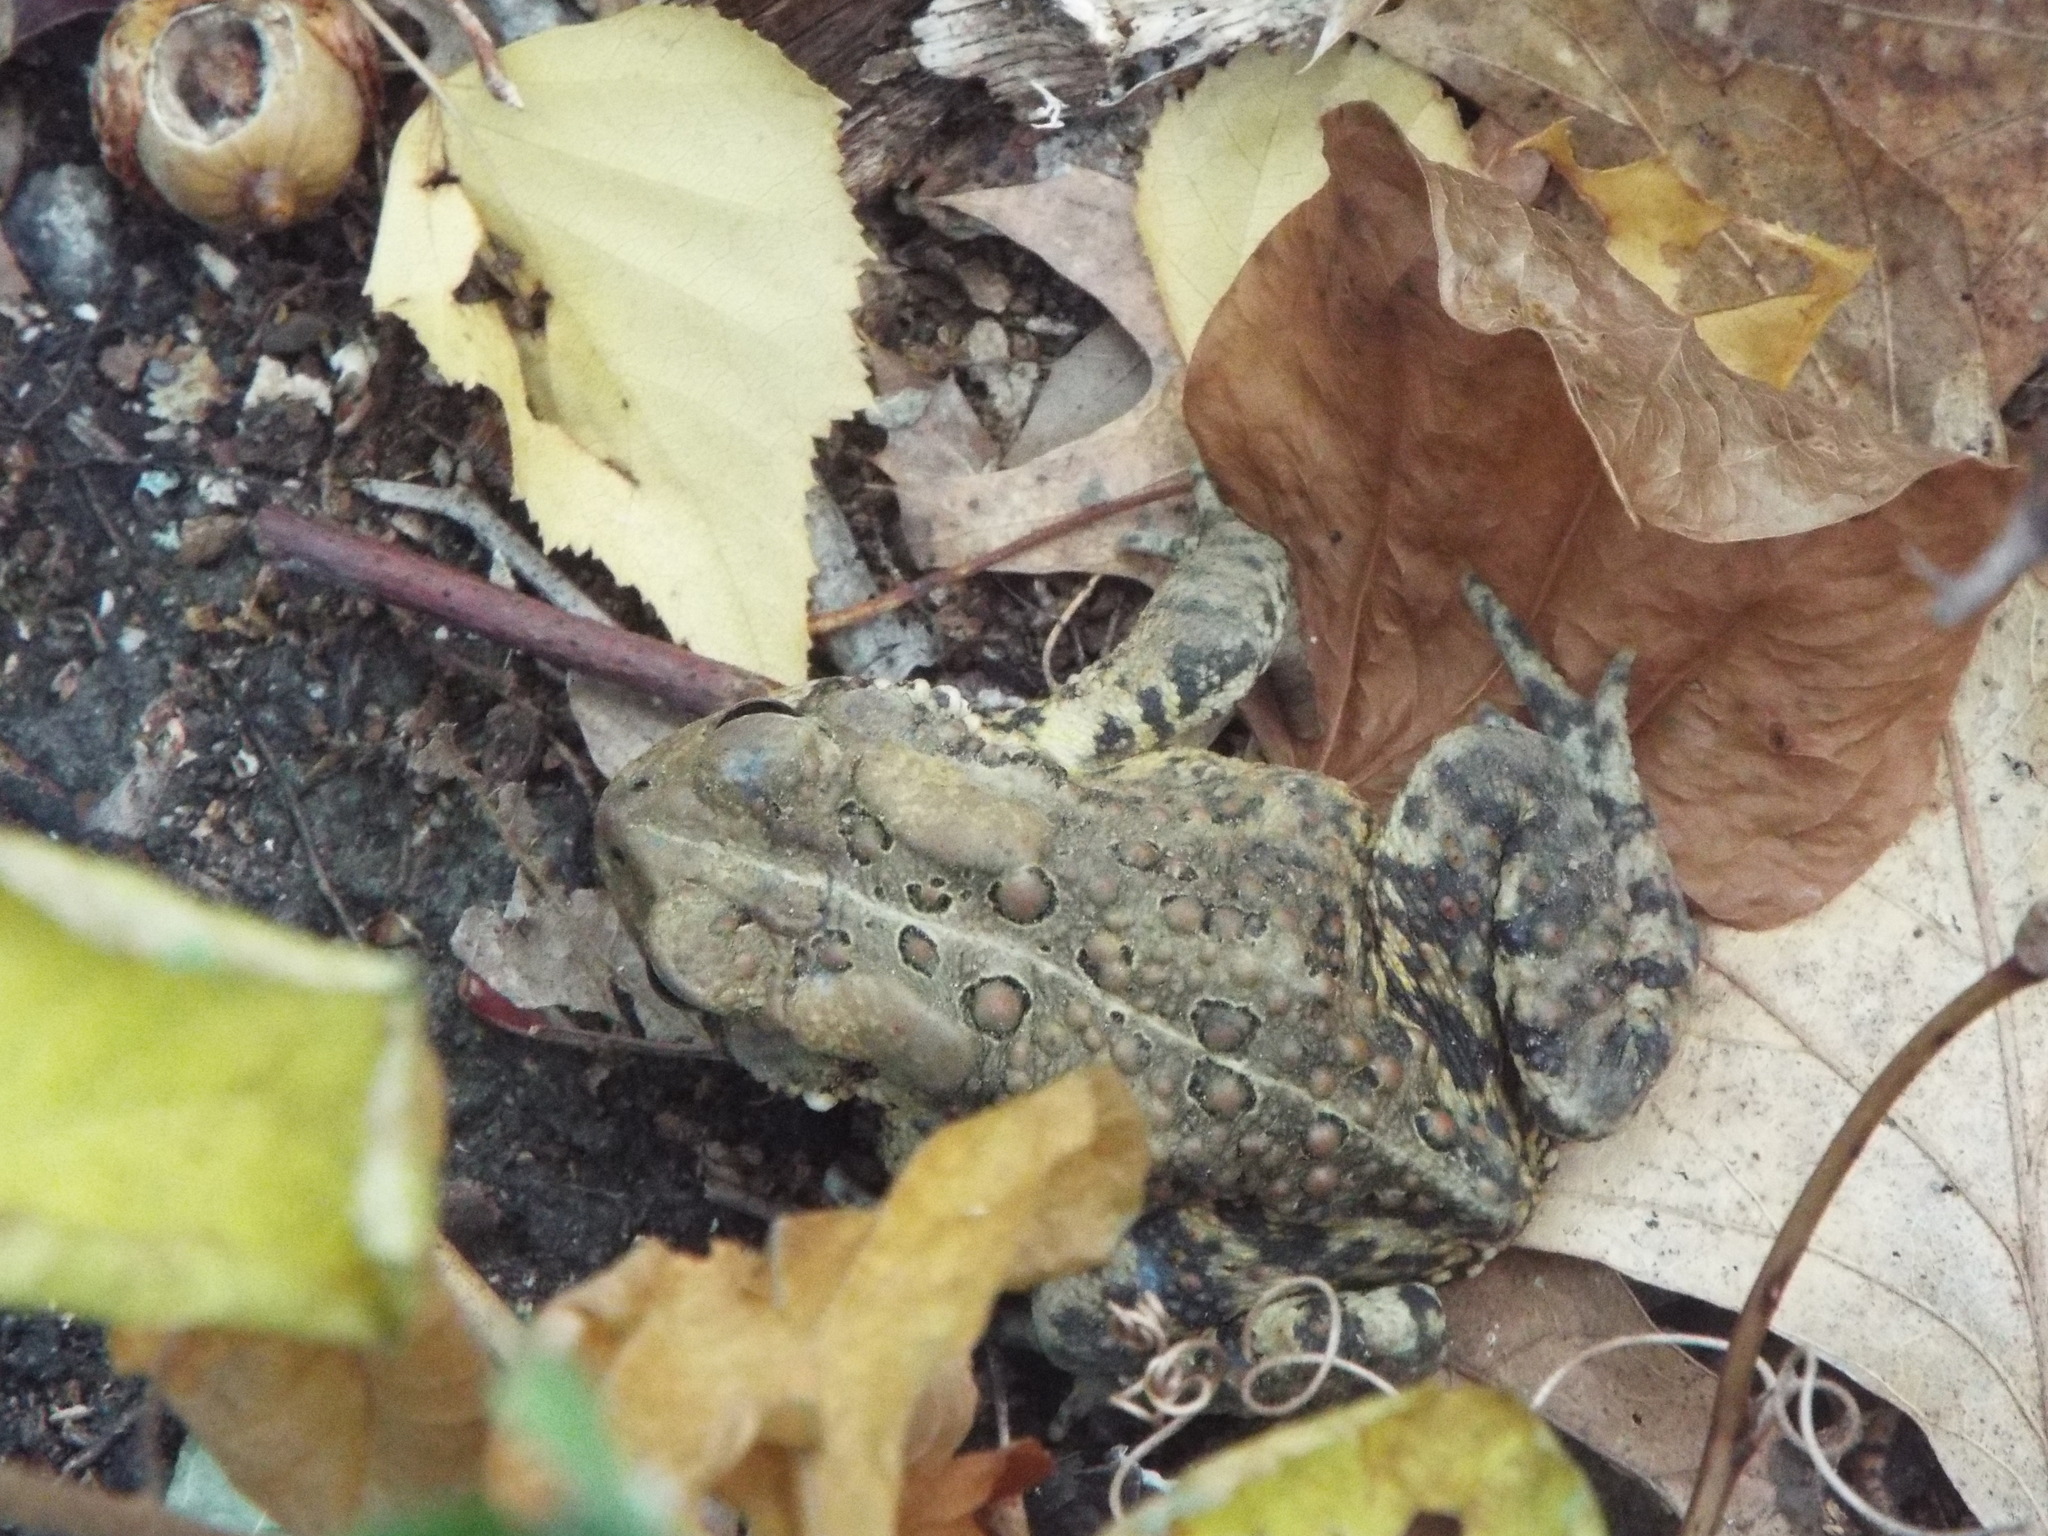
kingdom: Animalia
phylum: Chordata
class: Amphibia
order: Anura
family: Bufonidae
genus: Anaxyrus
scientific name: Anaxyrus americanus
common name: American toad
